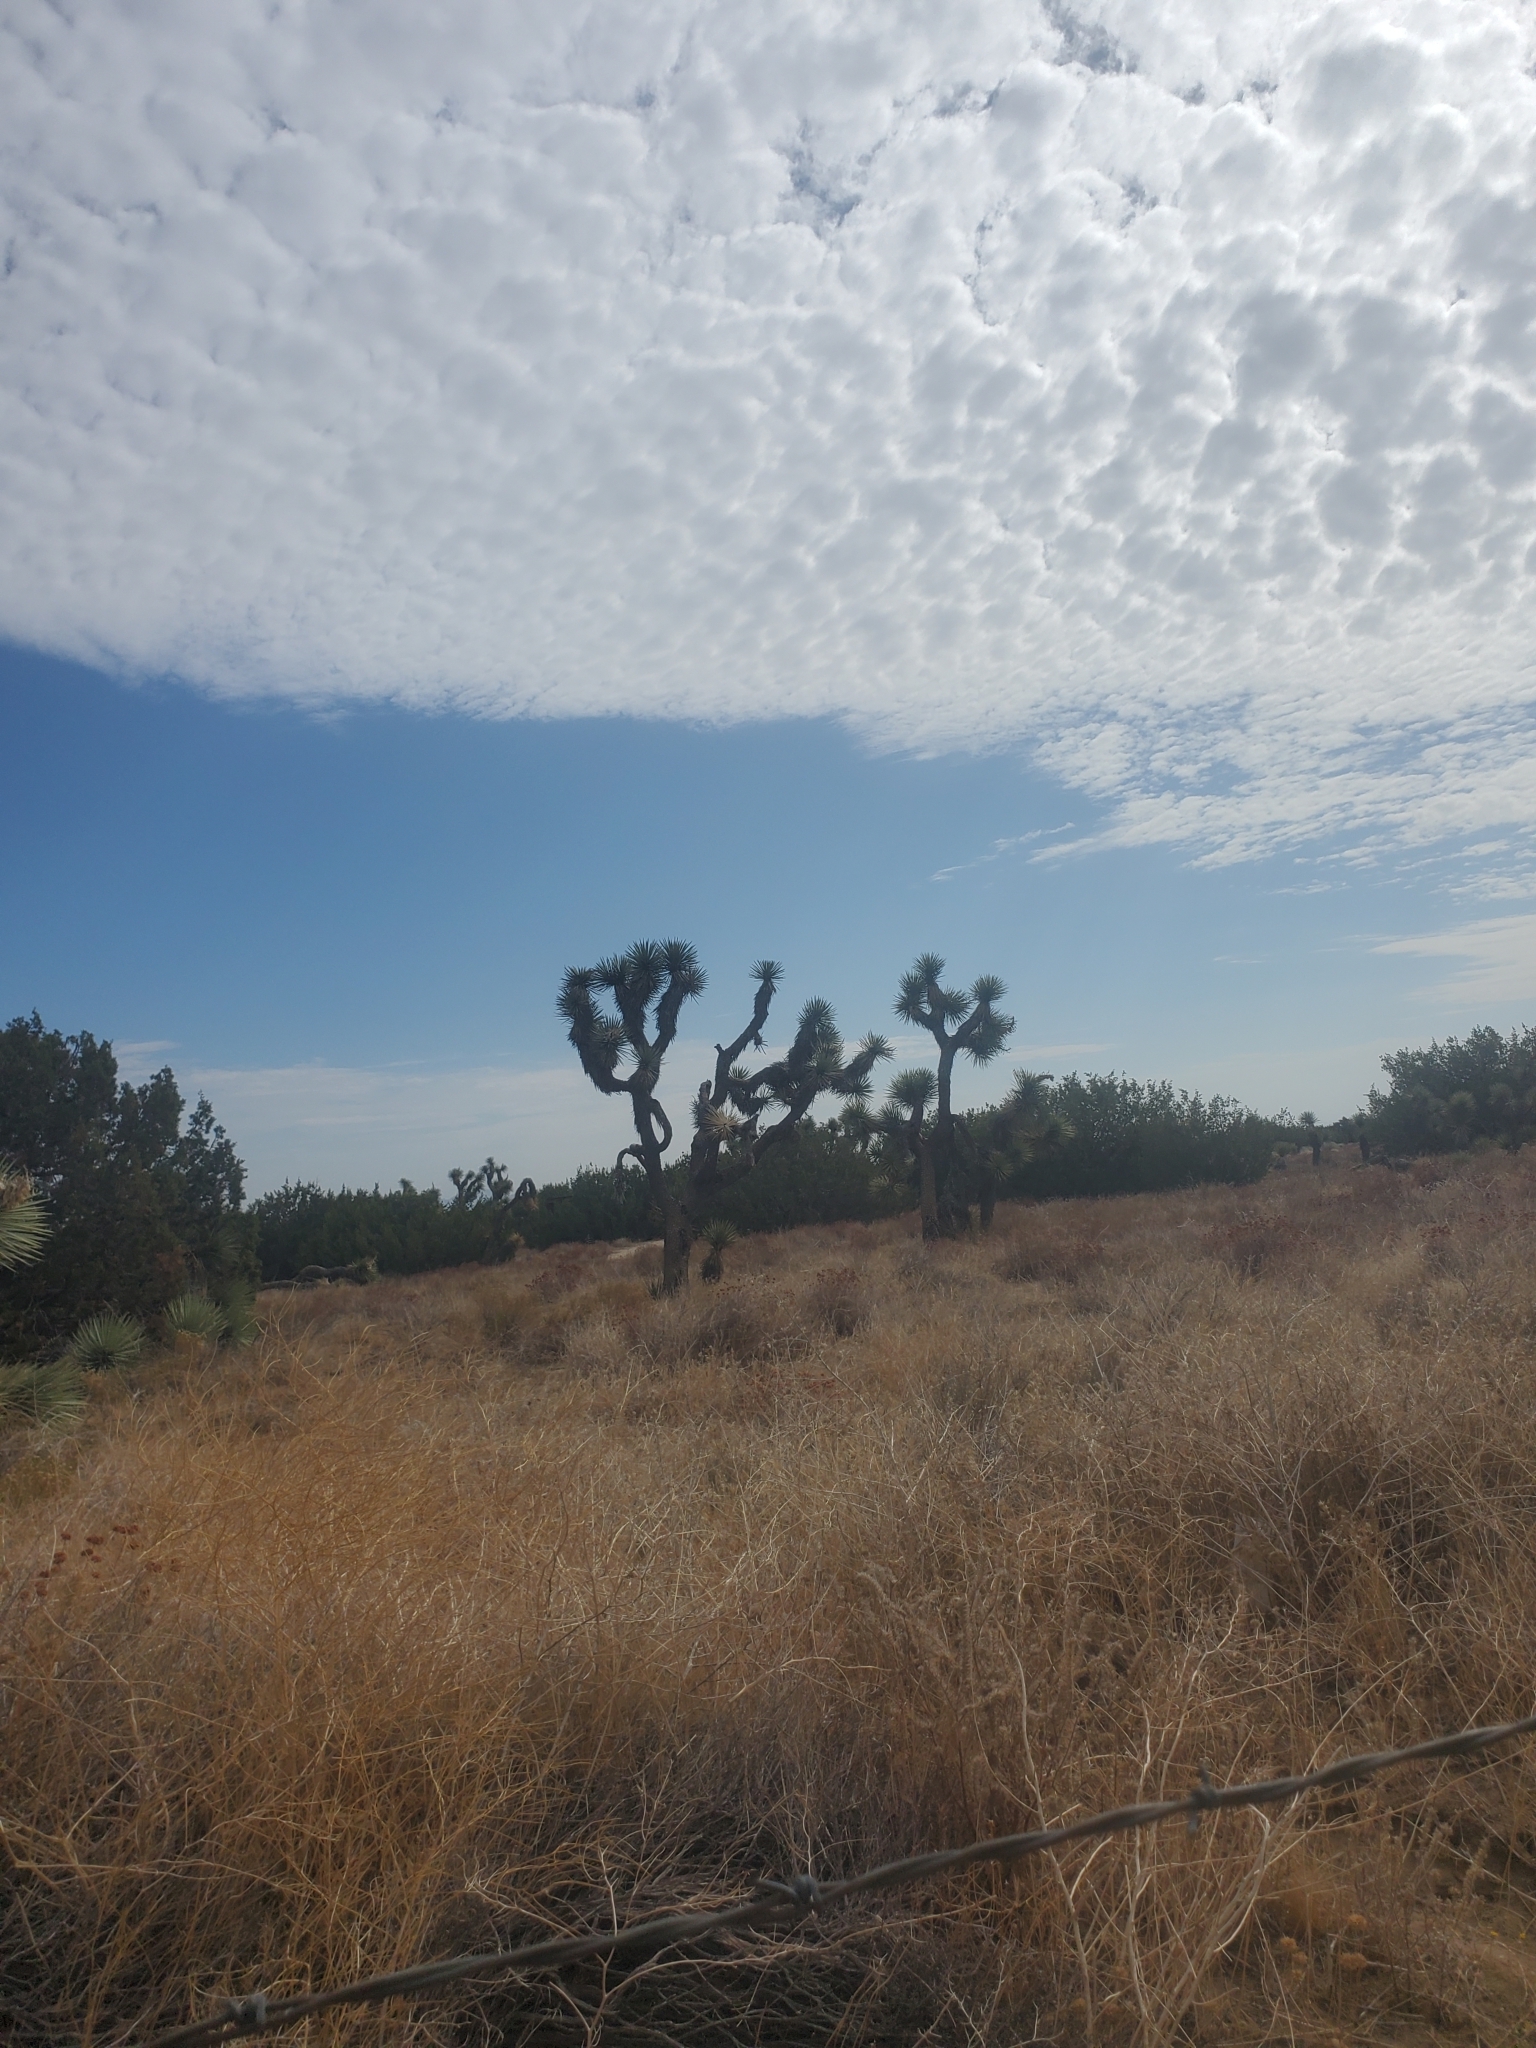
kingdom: Plantae
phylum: Tracheophyta
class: Liliopsida
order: Asparagales
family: Asparagaceae
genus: Yucca
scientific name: Yucca brevifolia
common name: Joshua tree
